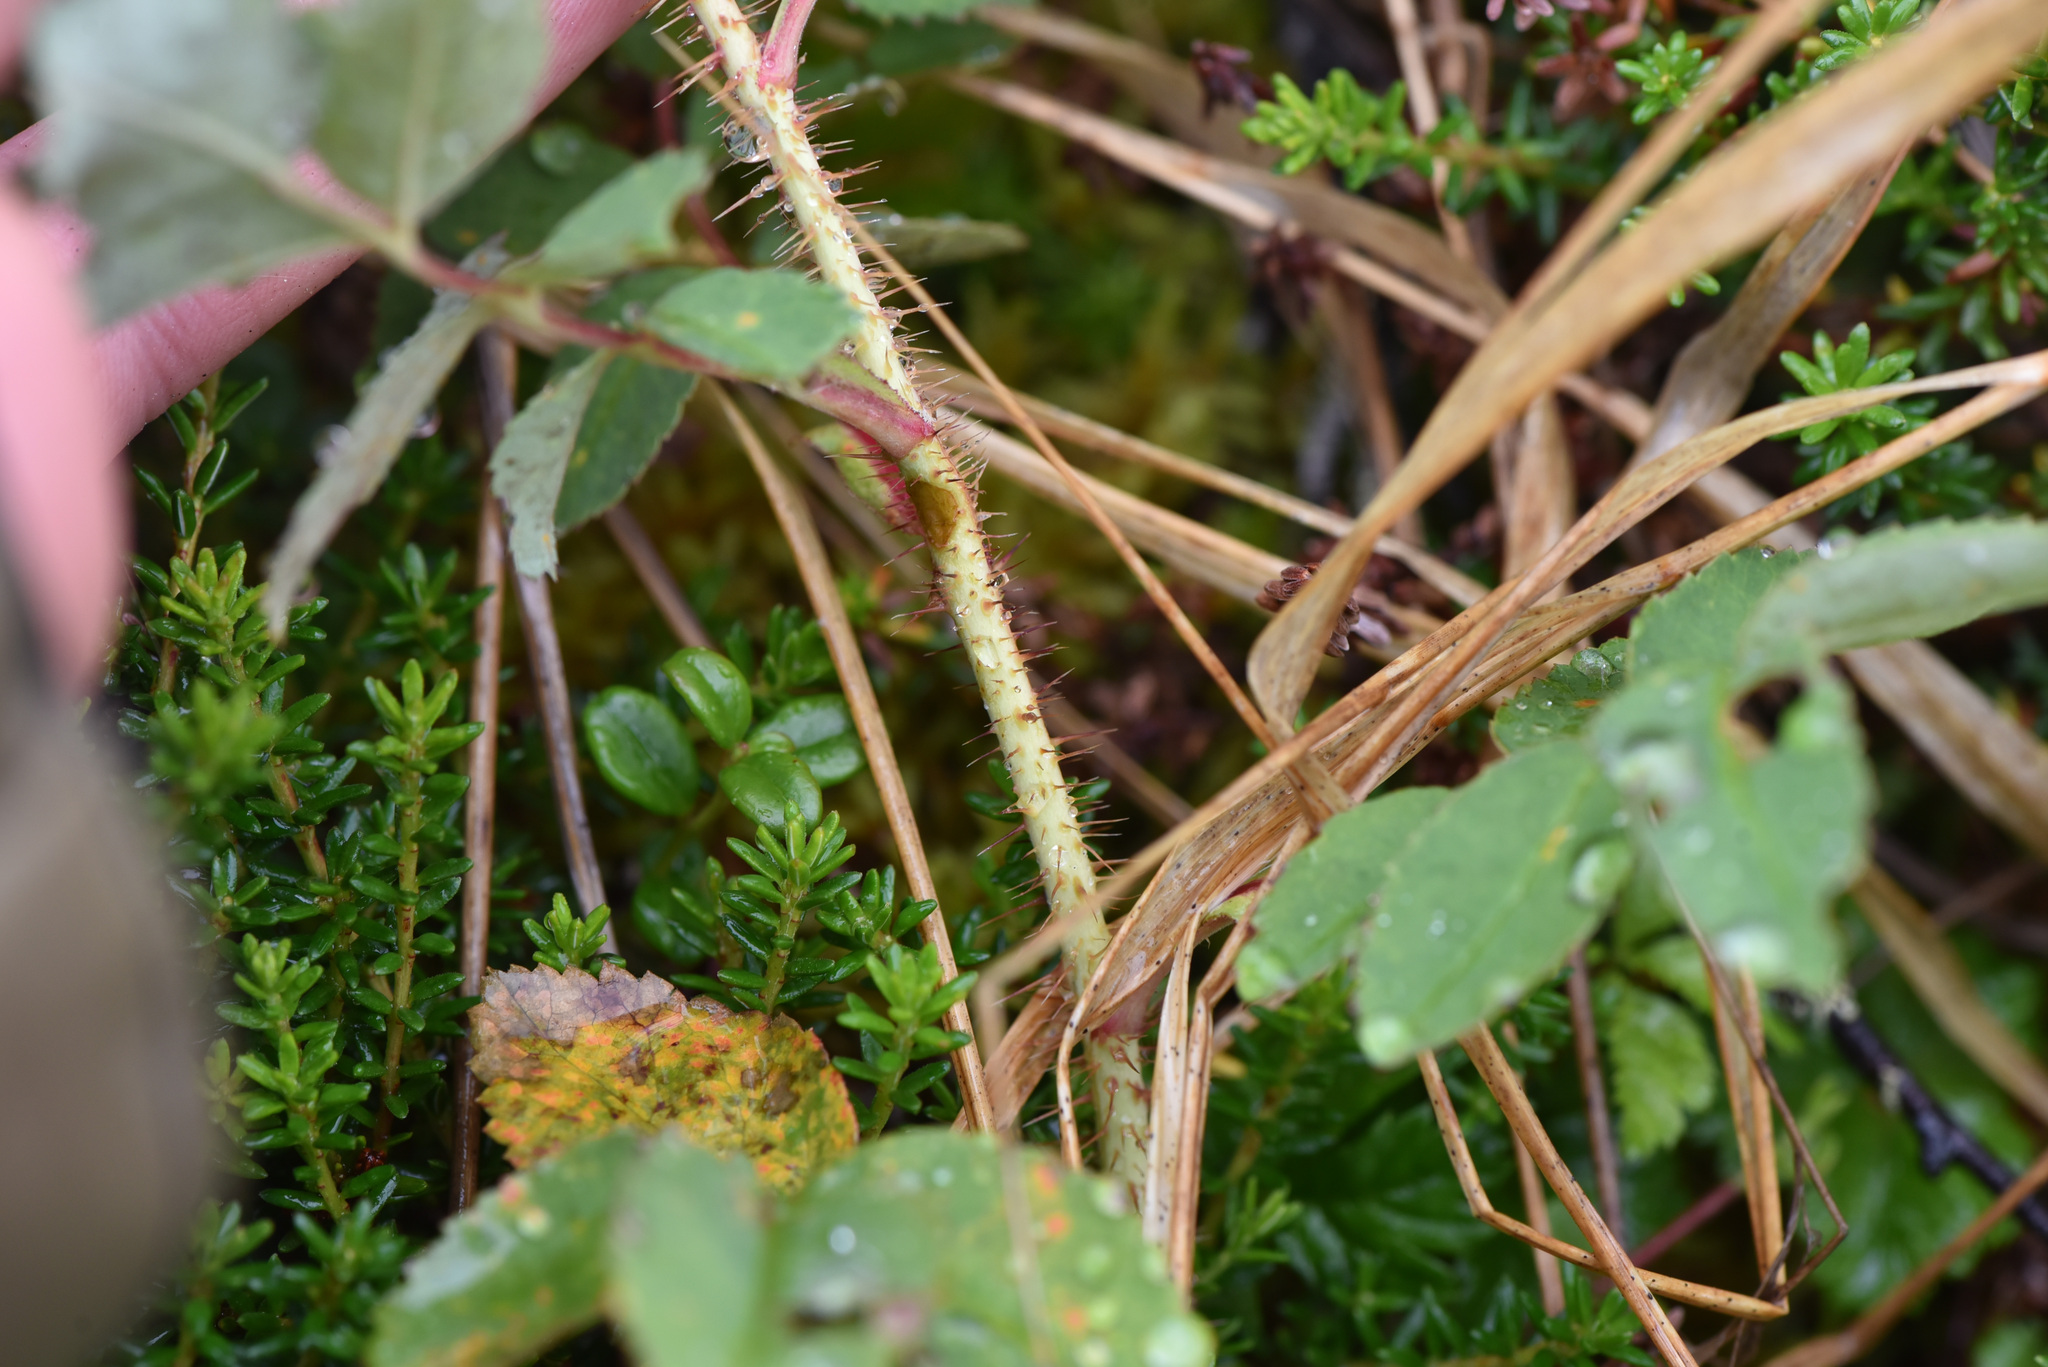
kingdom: Plantae
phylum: Tracheophyta
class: Magnoliopsida
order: Rosales
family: Rosaceae
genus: Rosa
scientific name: Rosa acicularis
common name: Prickly rose
